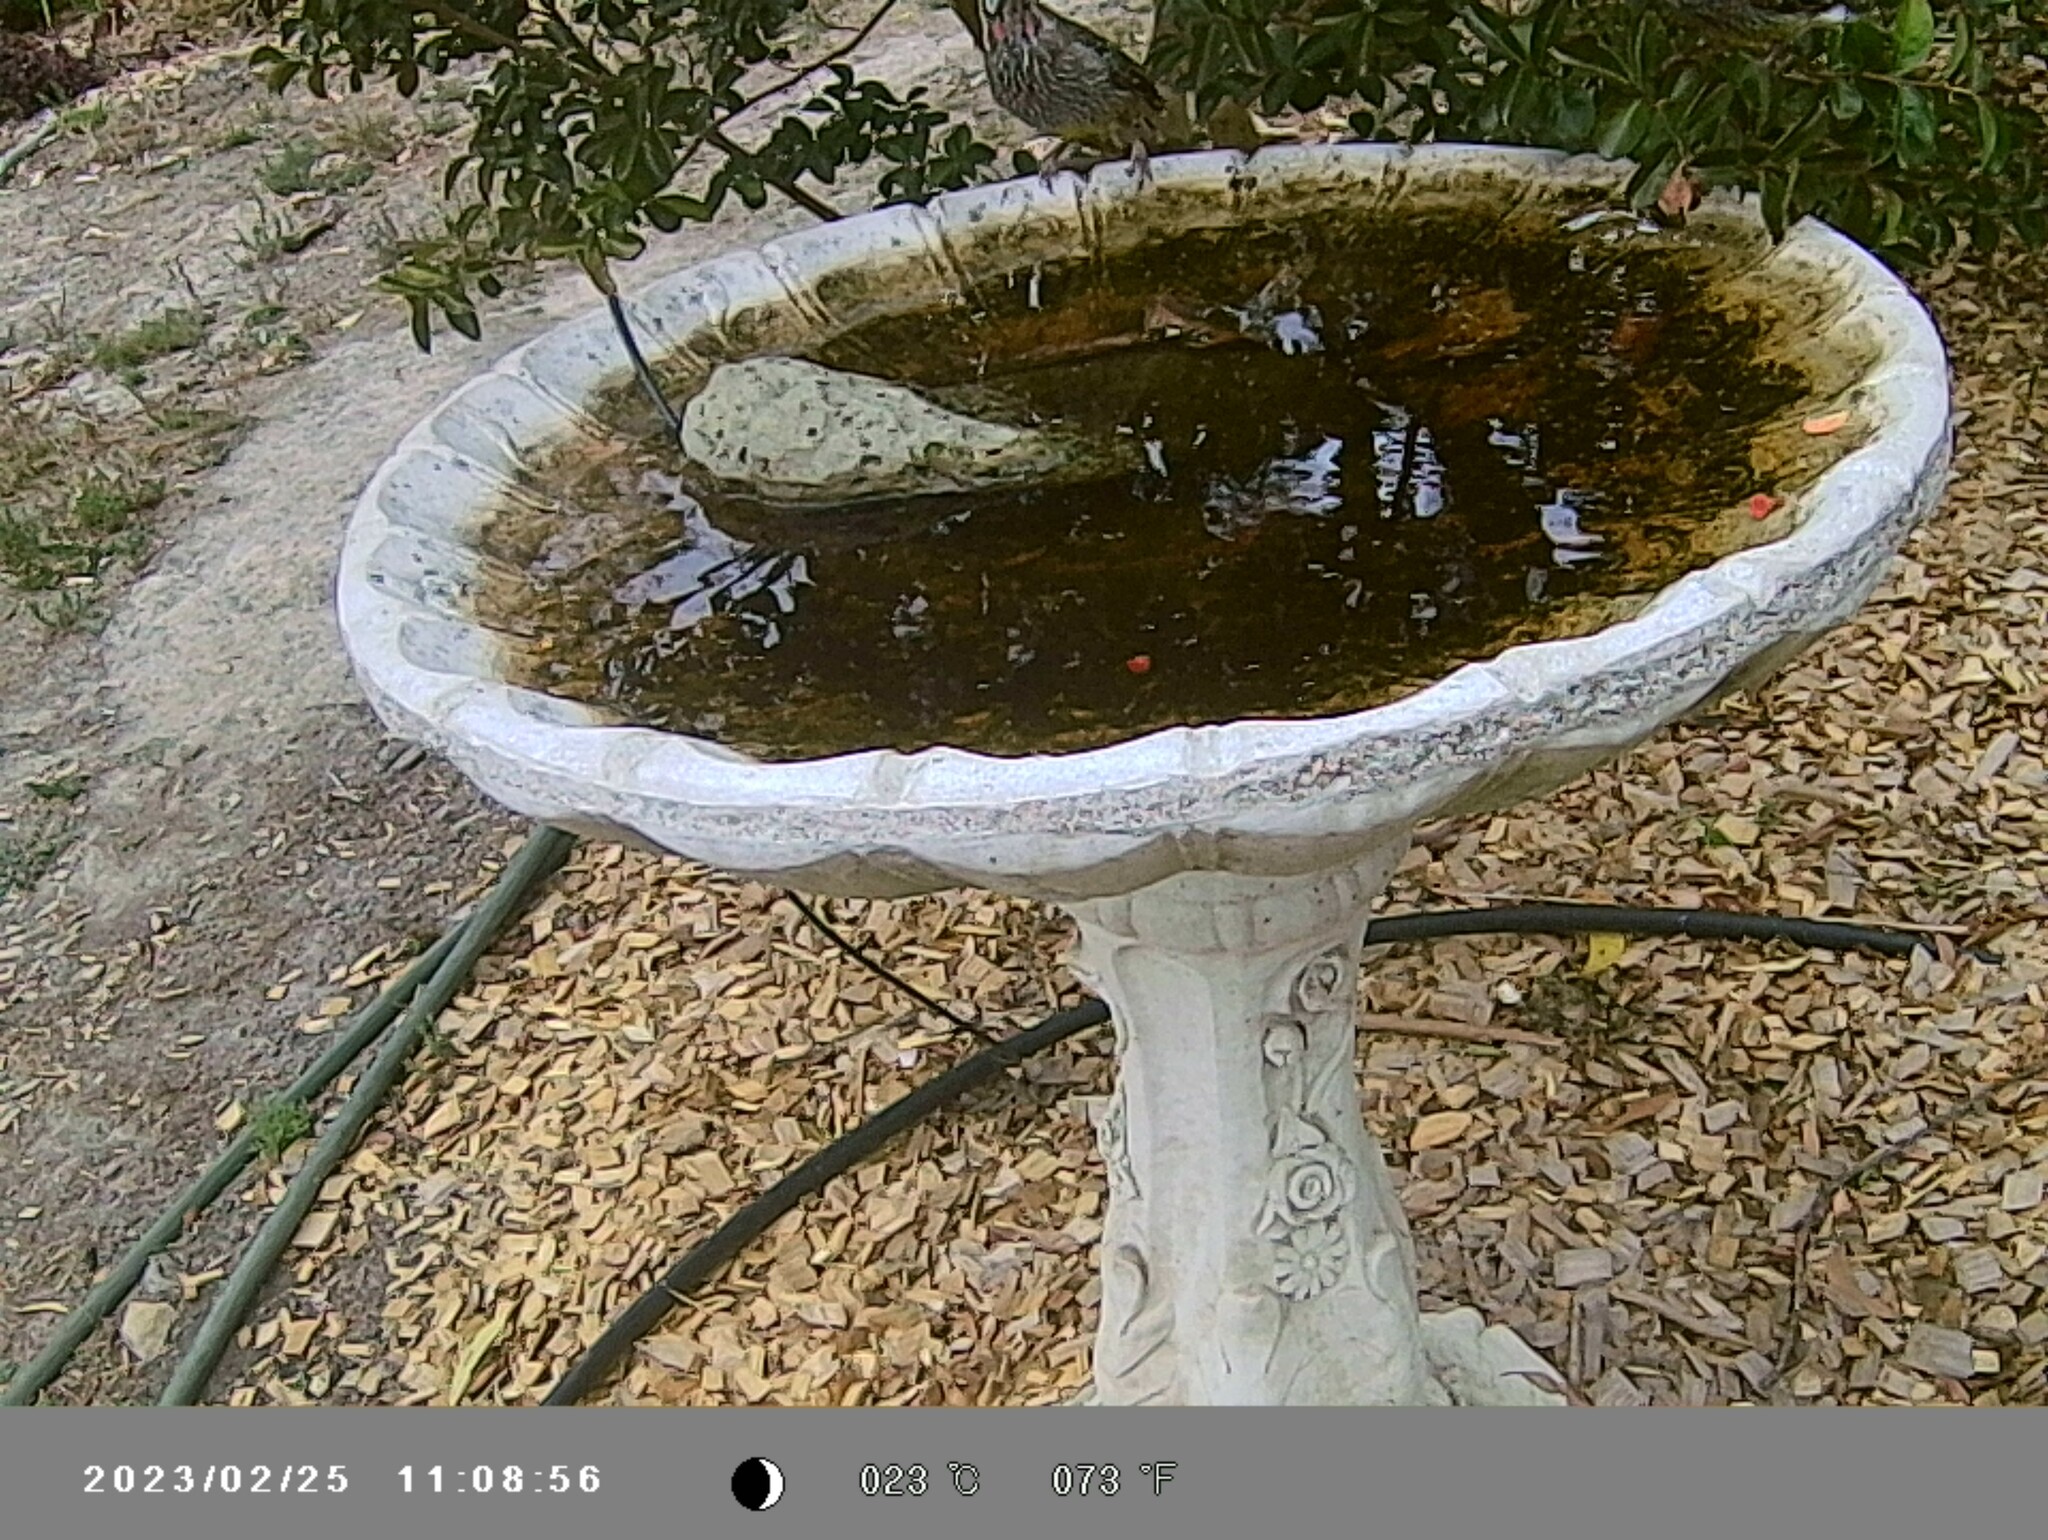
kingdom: Animalia
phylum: Chordata
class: Aves
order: Passeriformes
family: Meliphagidae
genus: Anthochaera
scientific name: Anthochaera carunculata
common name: Red wattlebird
